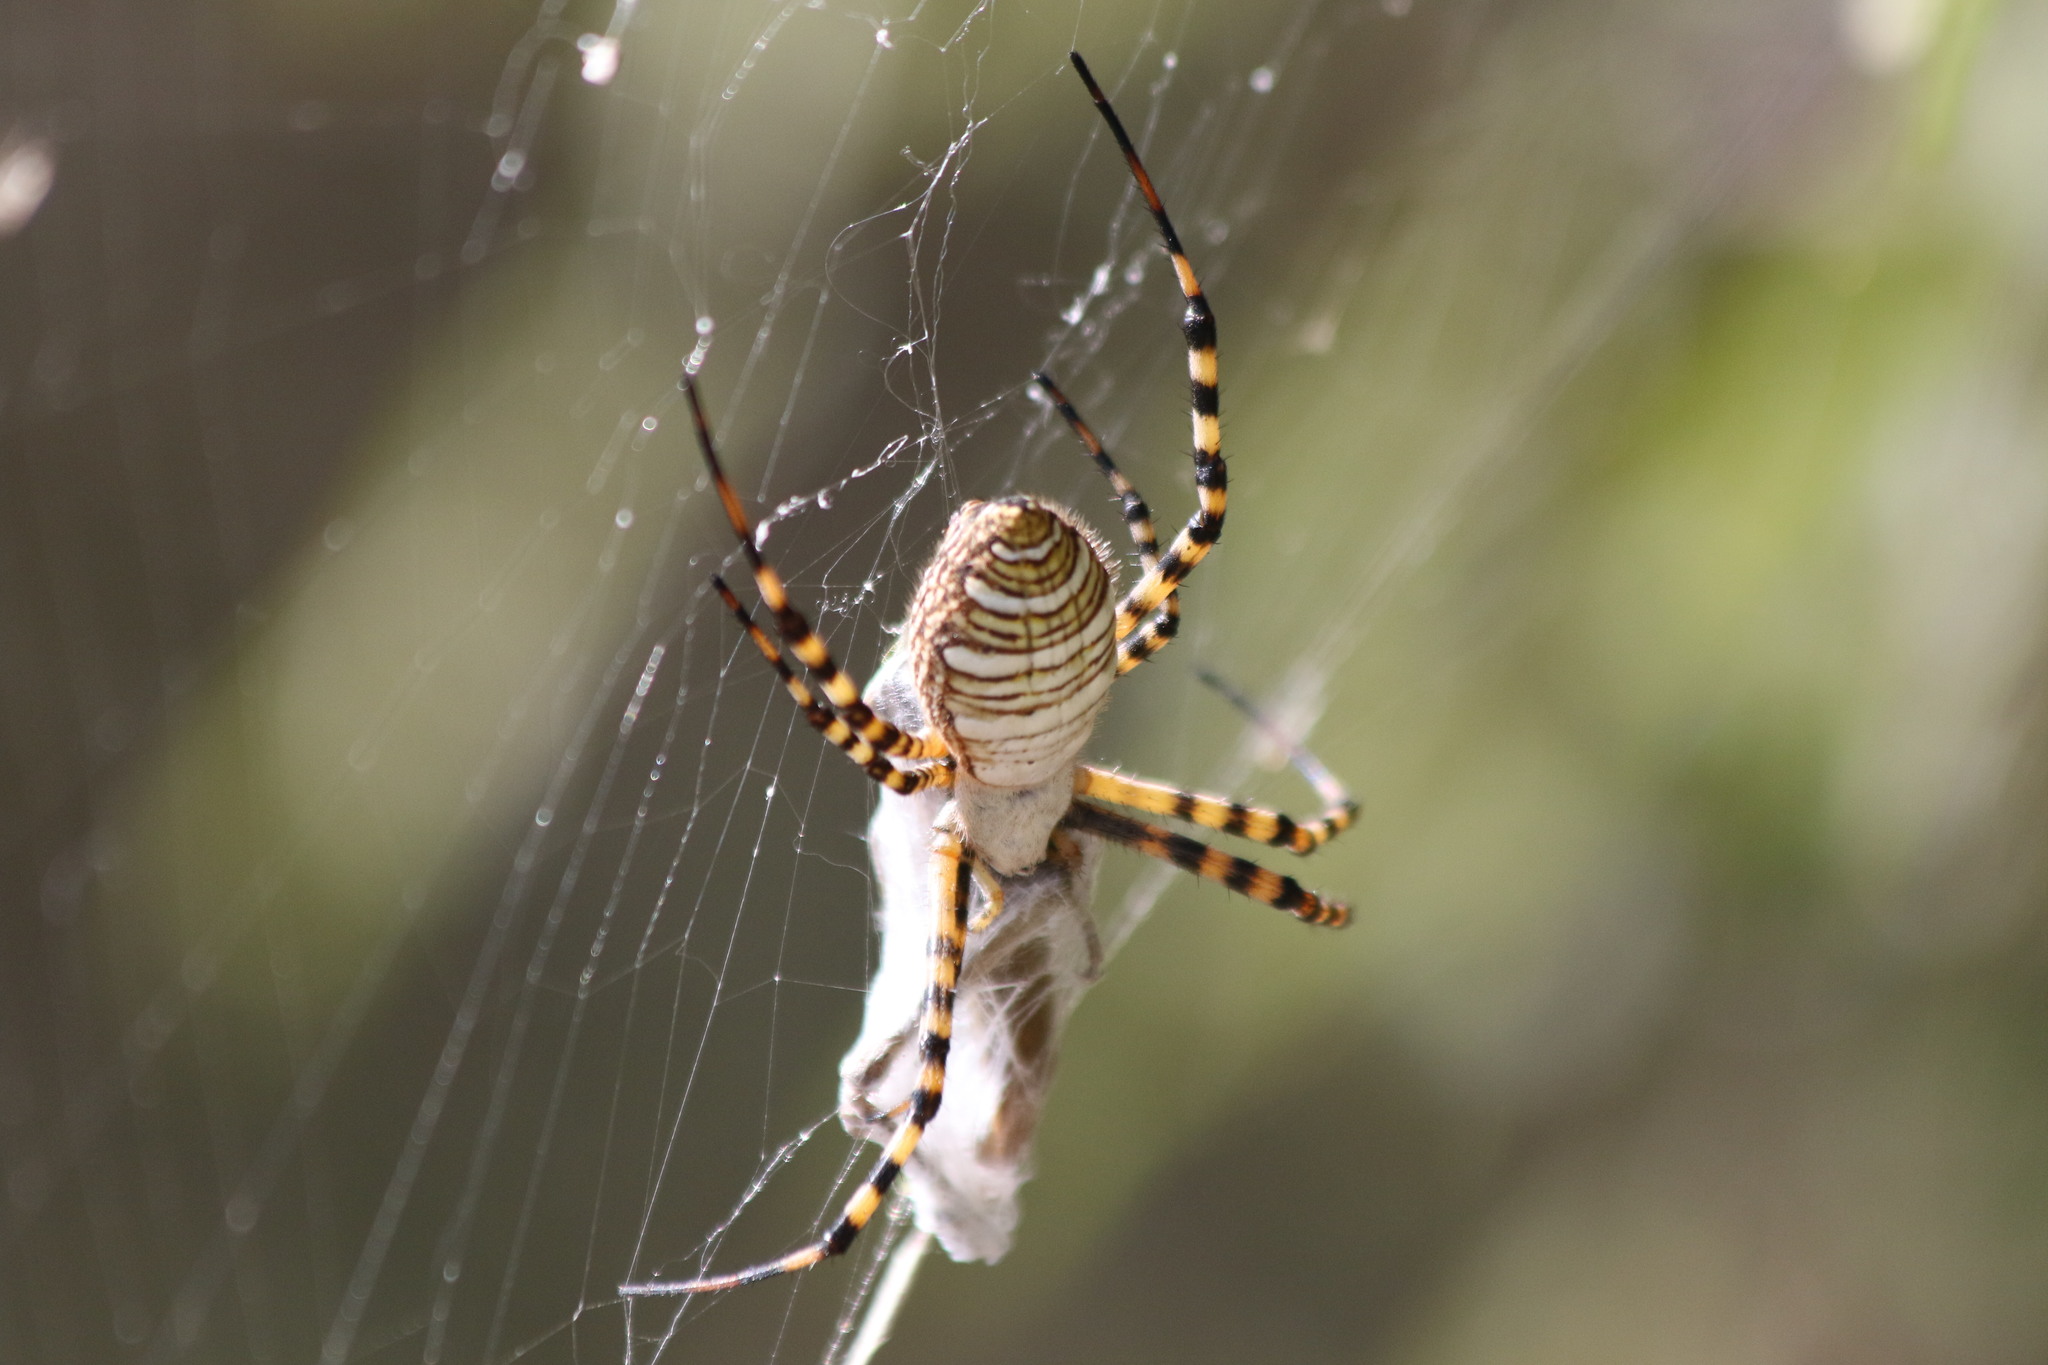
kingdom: Animalia
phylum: Arthropoda
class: Arachnida
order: Araneae
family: Araneidae
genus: Argiope
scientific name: Argiope trifasciata
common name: Banded garden spider
